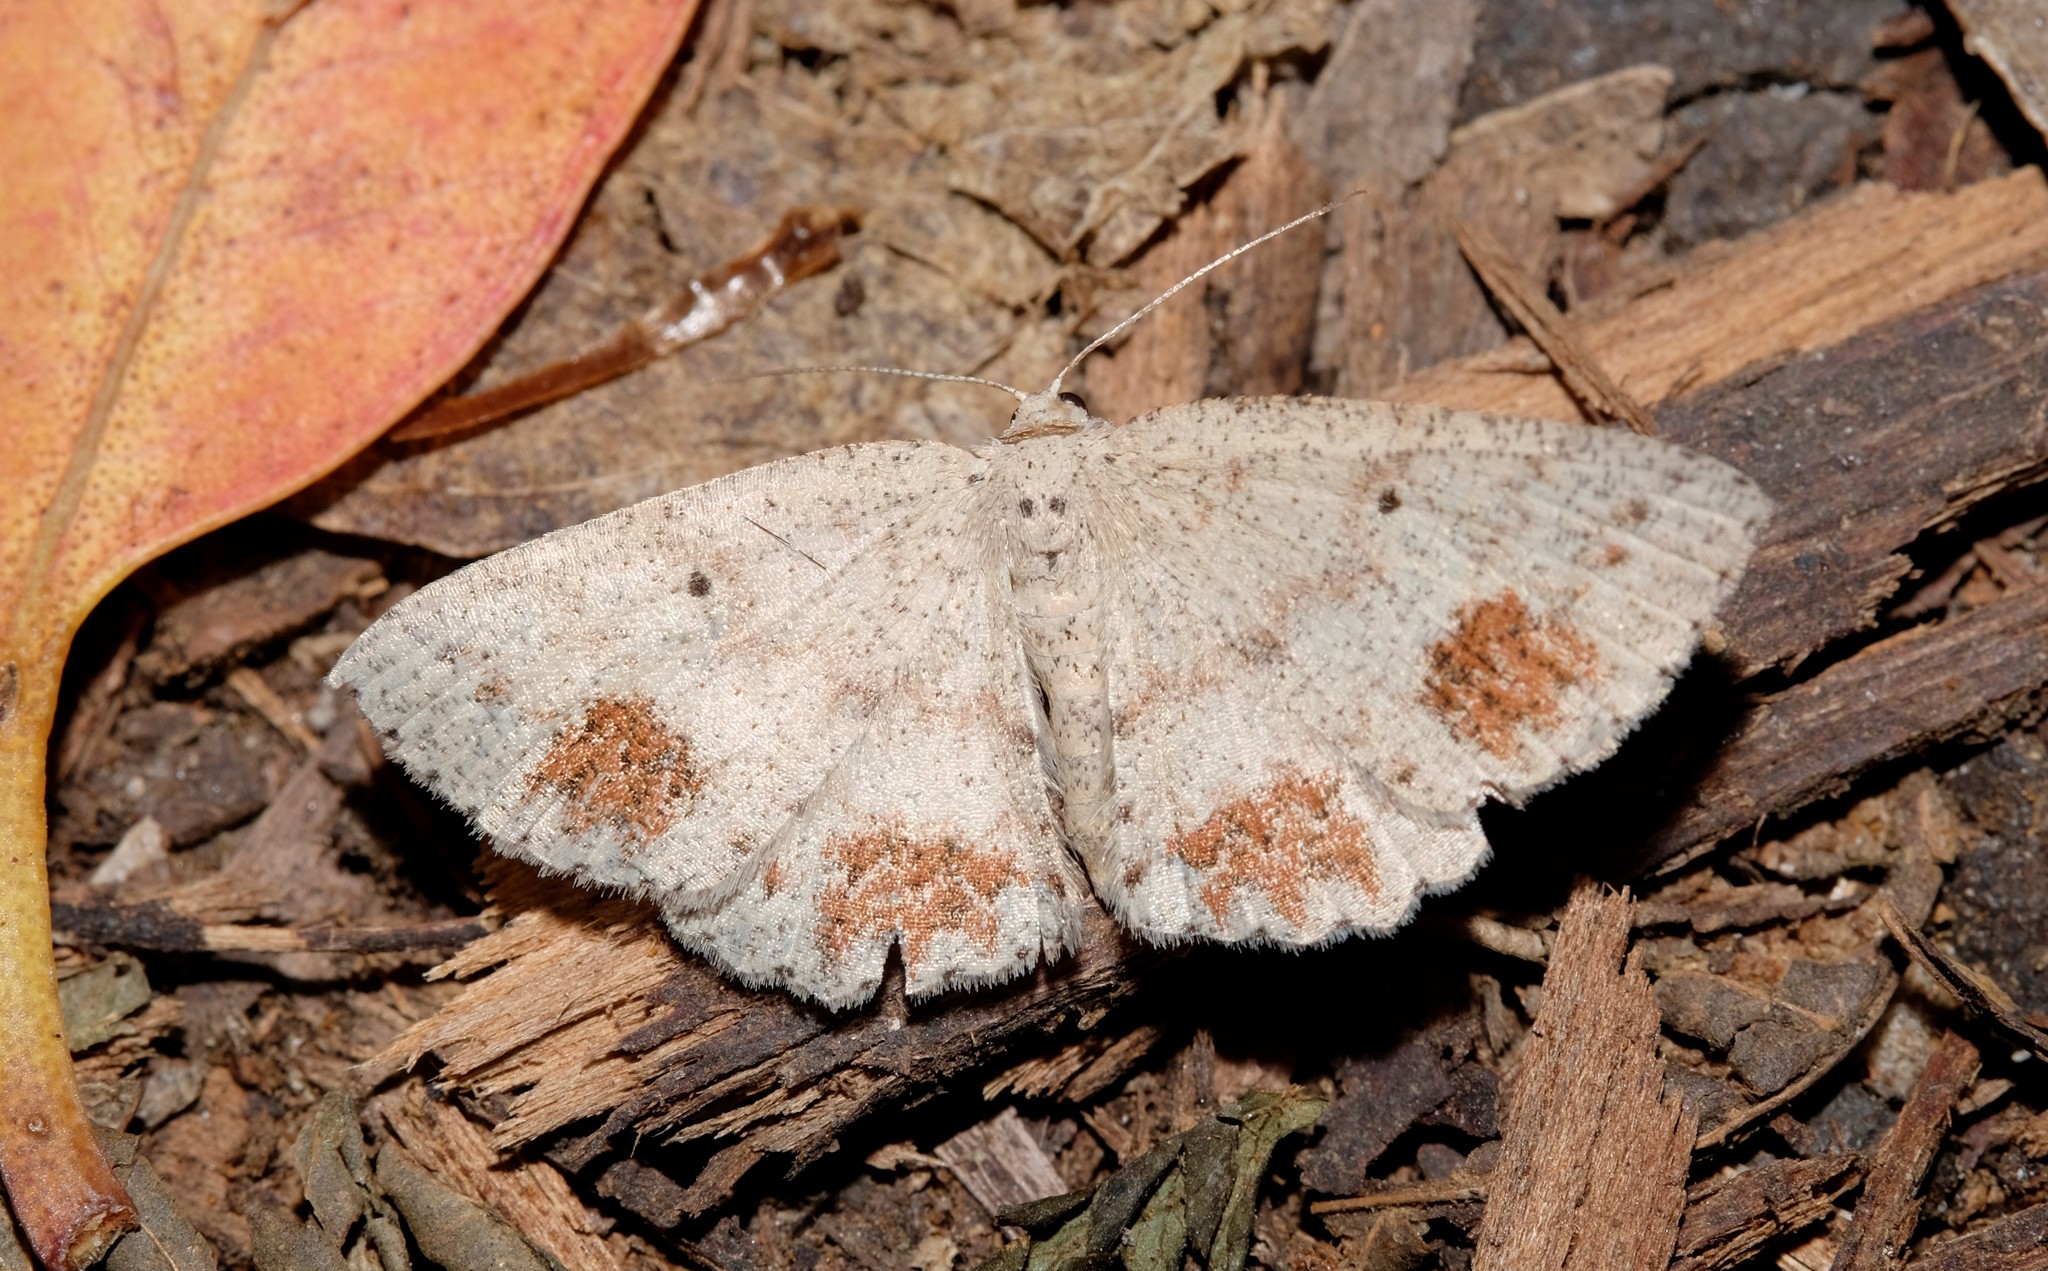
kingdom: Animalia
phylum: Arthropoda
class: Insecta
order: Lepidoptera
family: Geometridae
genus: Casbia
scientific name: Casbia celidosema
